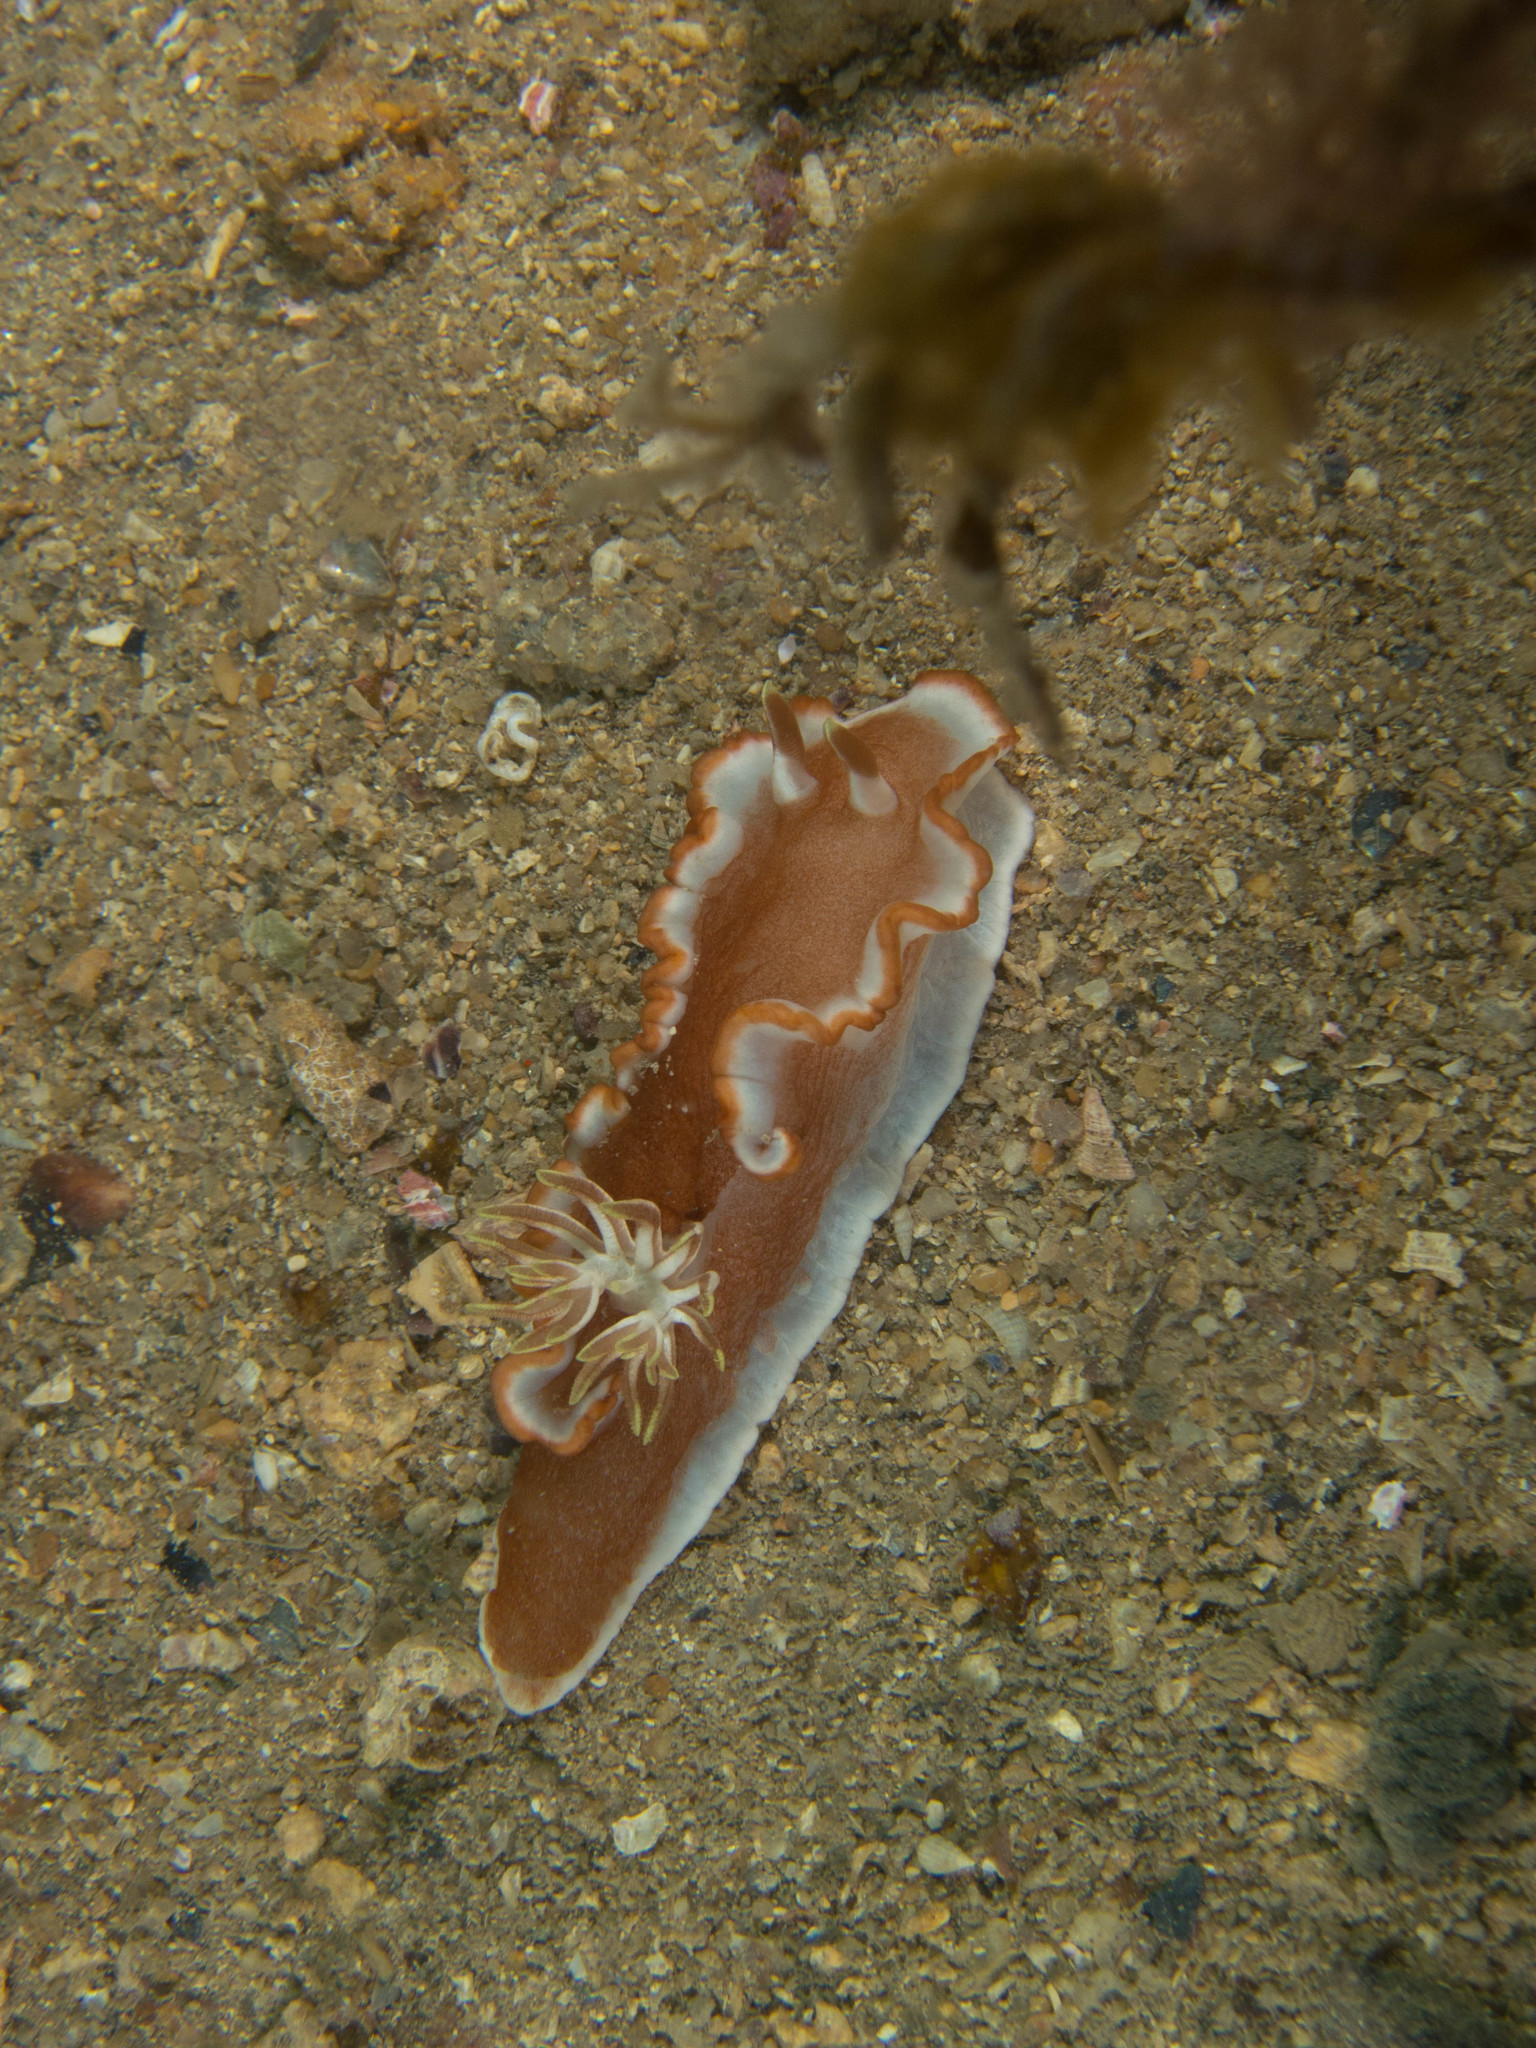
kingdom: Animalia
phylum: Mollusca
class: Gastropoda
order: Nudibranchia
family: Chromodorididae
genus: Glossodoris
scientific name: Glossodoris rufomarginata
